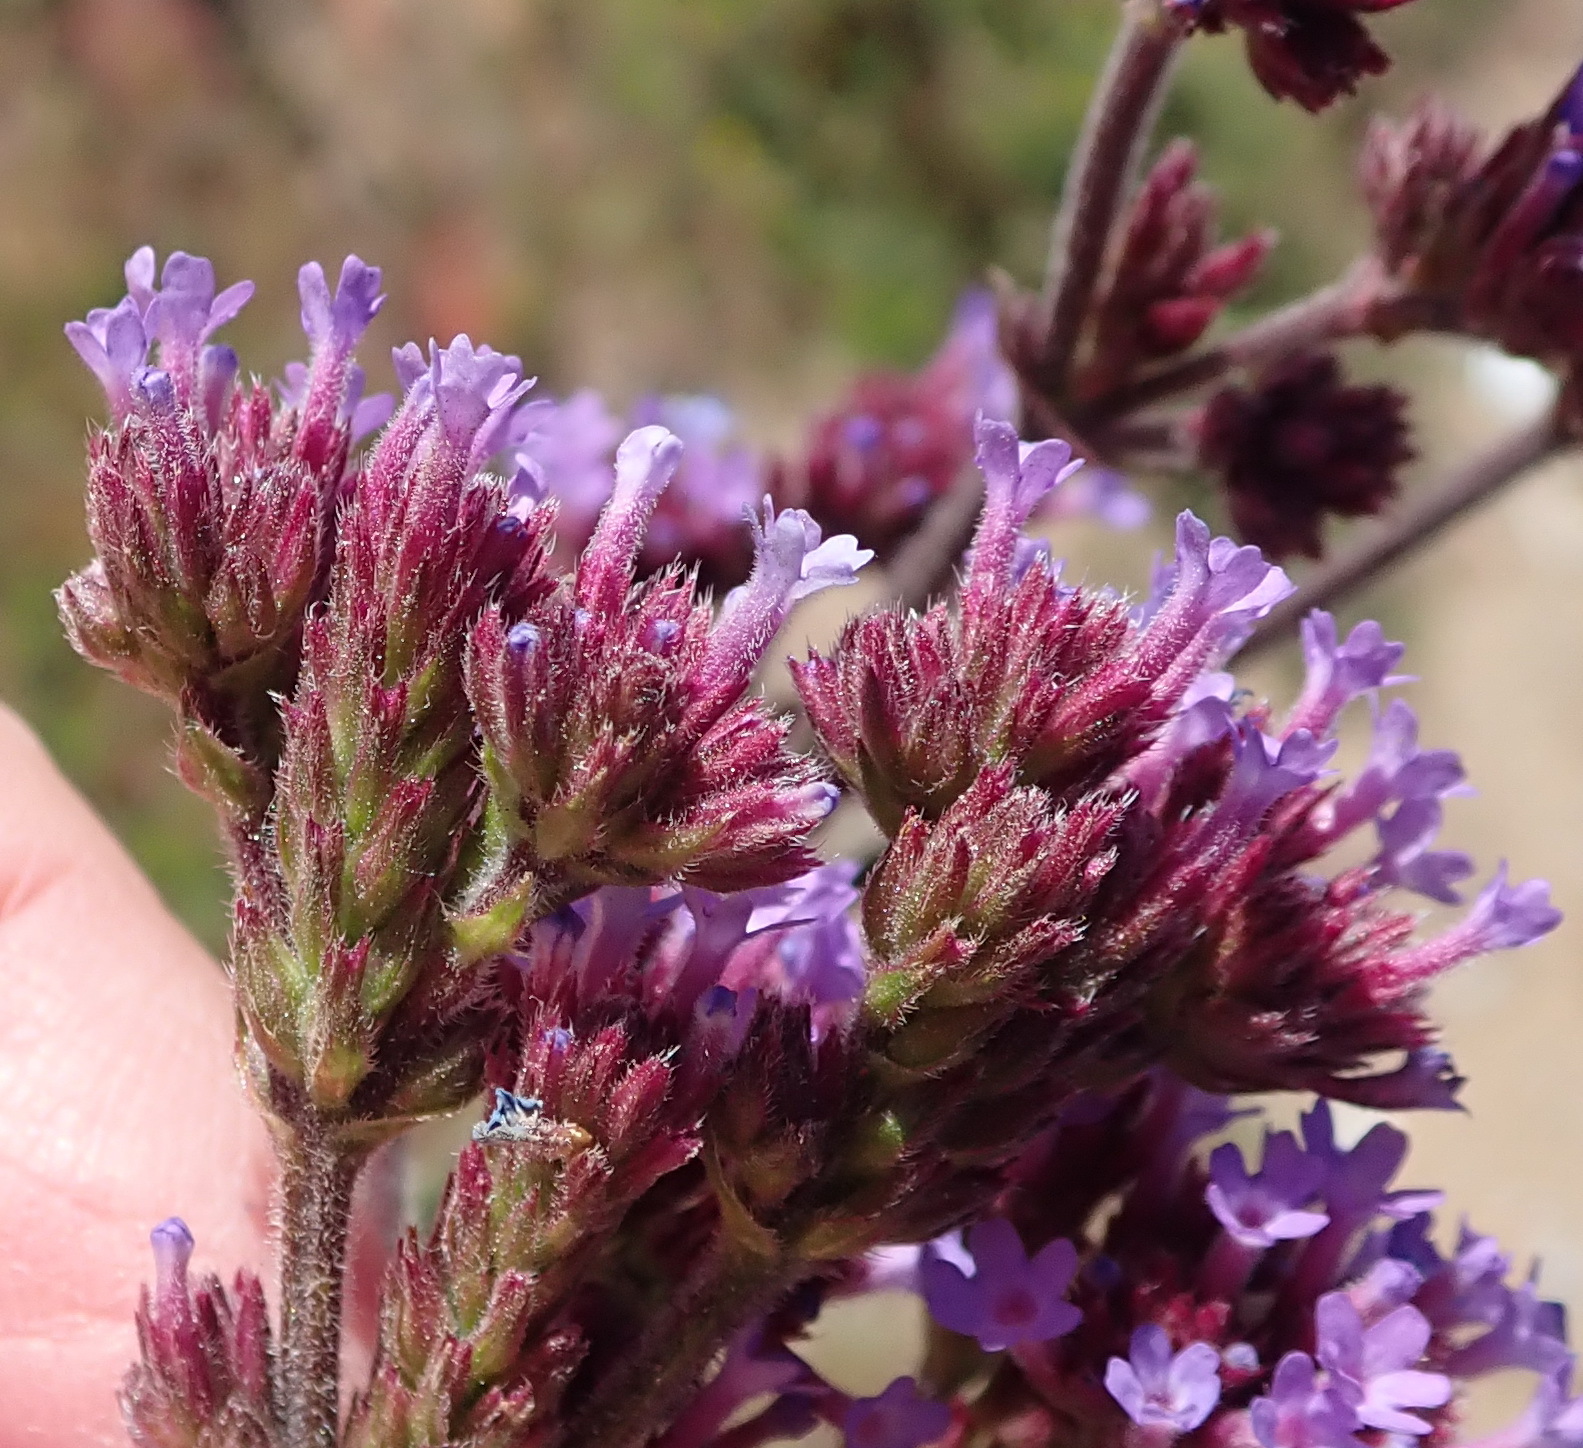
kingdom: Plantae
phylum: Tracheophyta
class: Magnoliopsida
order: Lamiales
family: Verbenaceae
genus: Verbena
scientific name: Verbena bonariensis
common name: Purpletop vervain
